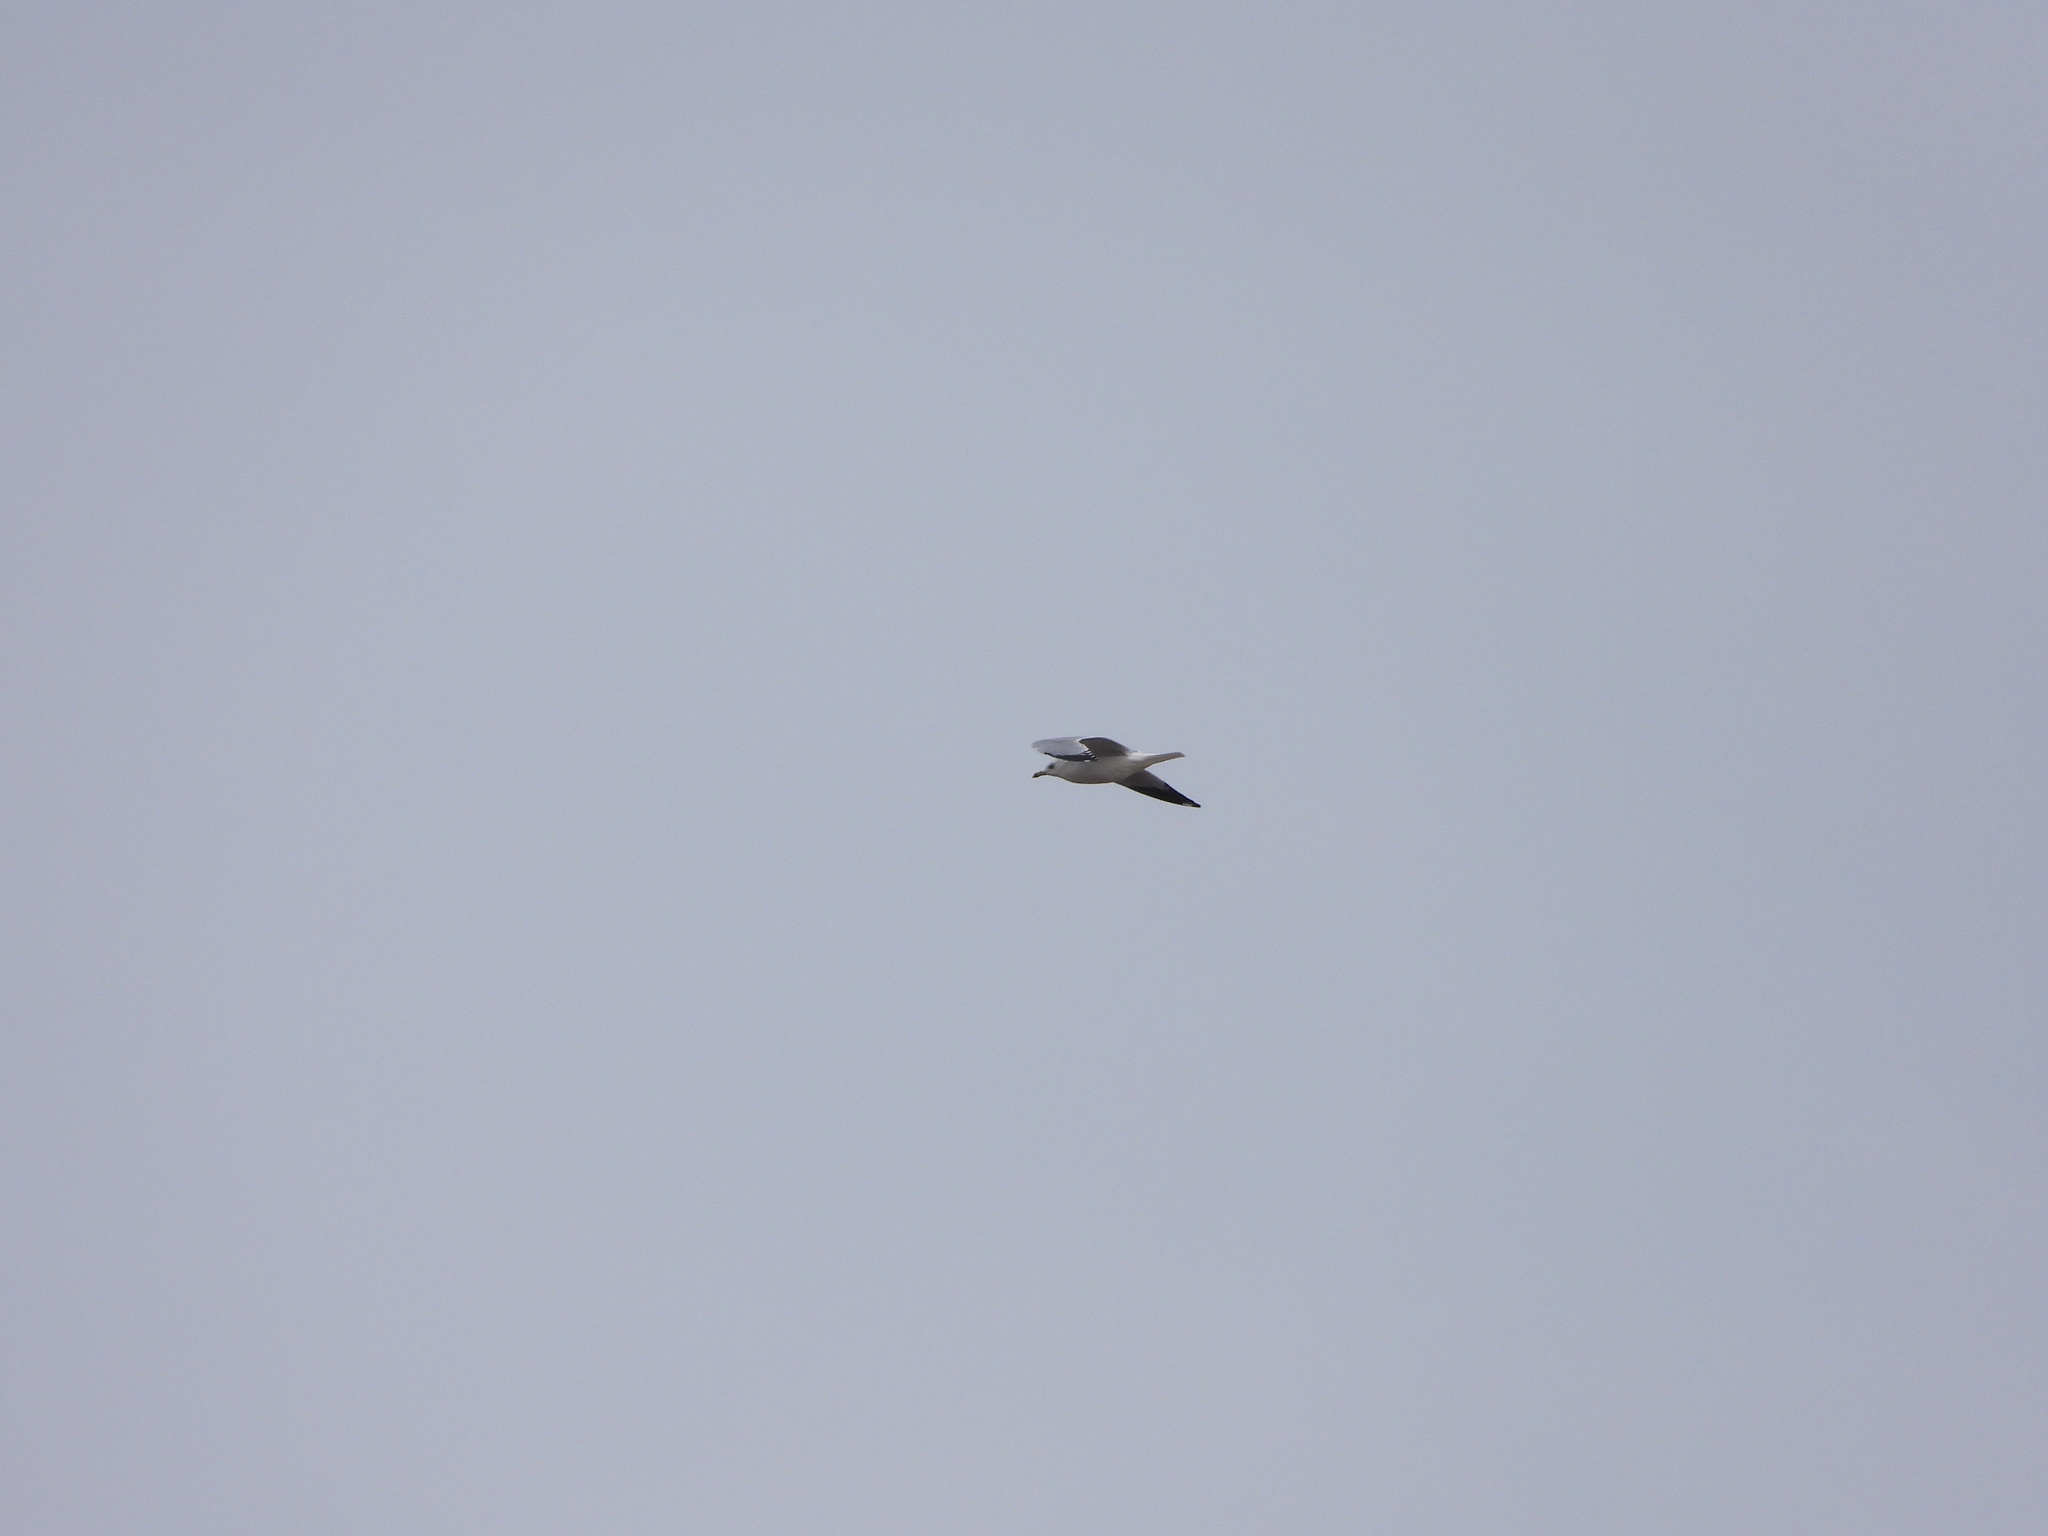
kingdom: Animalia
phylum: Chordata
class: Aves
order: Charadriiformes
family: Laridae
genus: Larus
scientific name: Larus delawarensis
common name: Ring-billed gull
